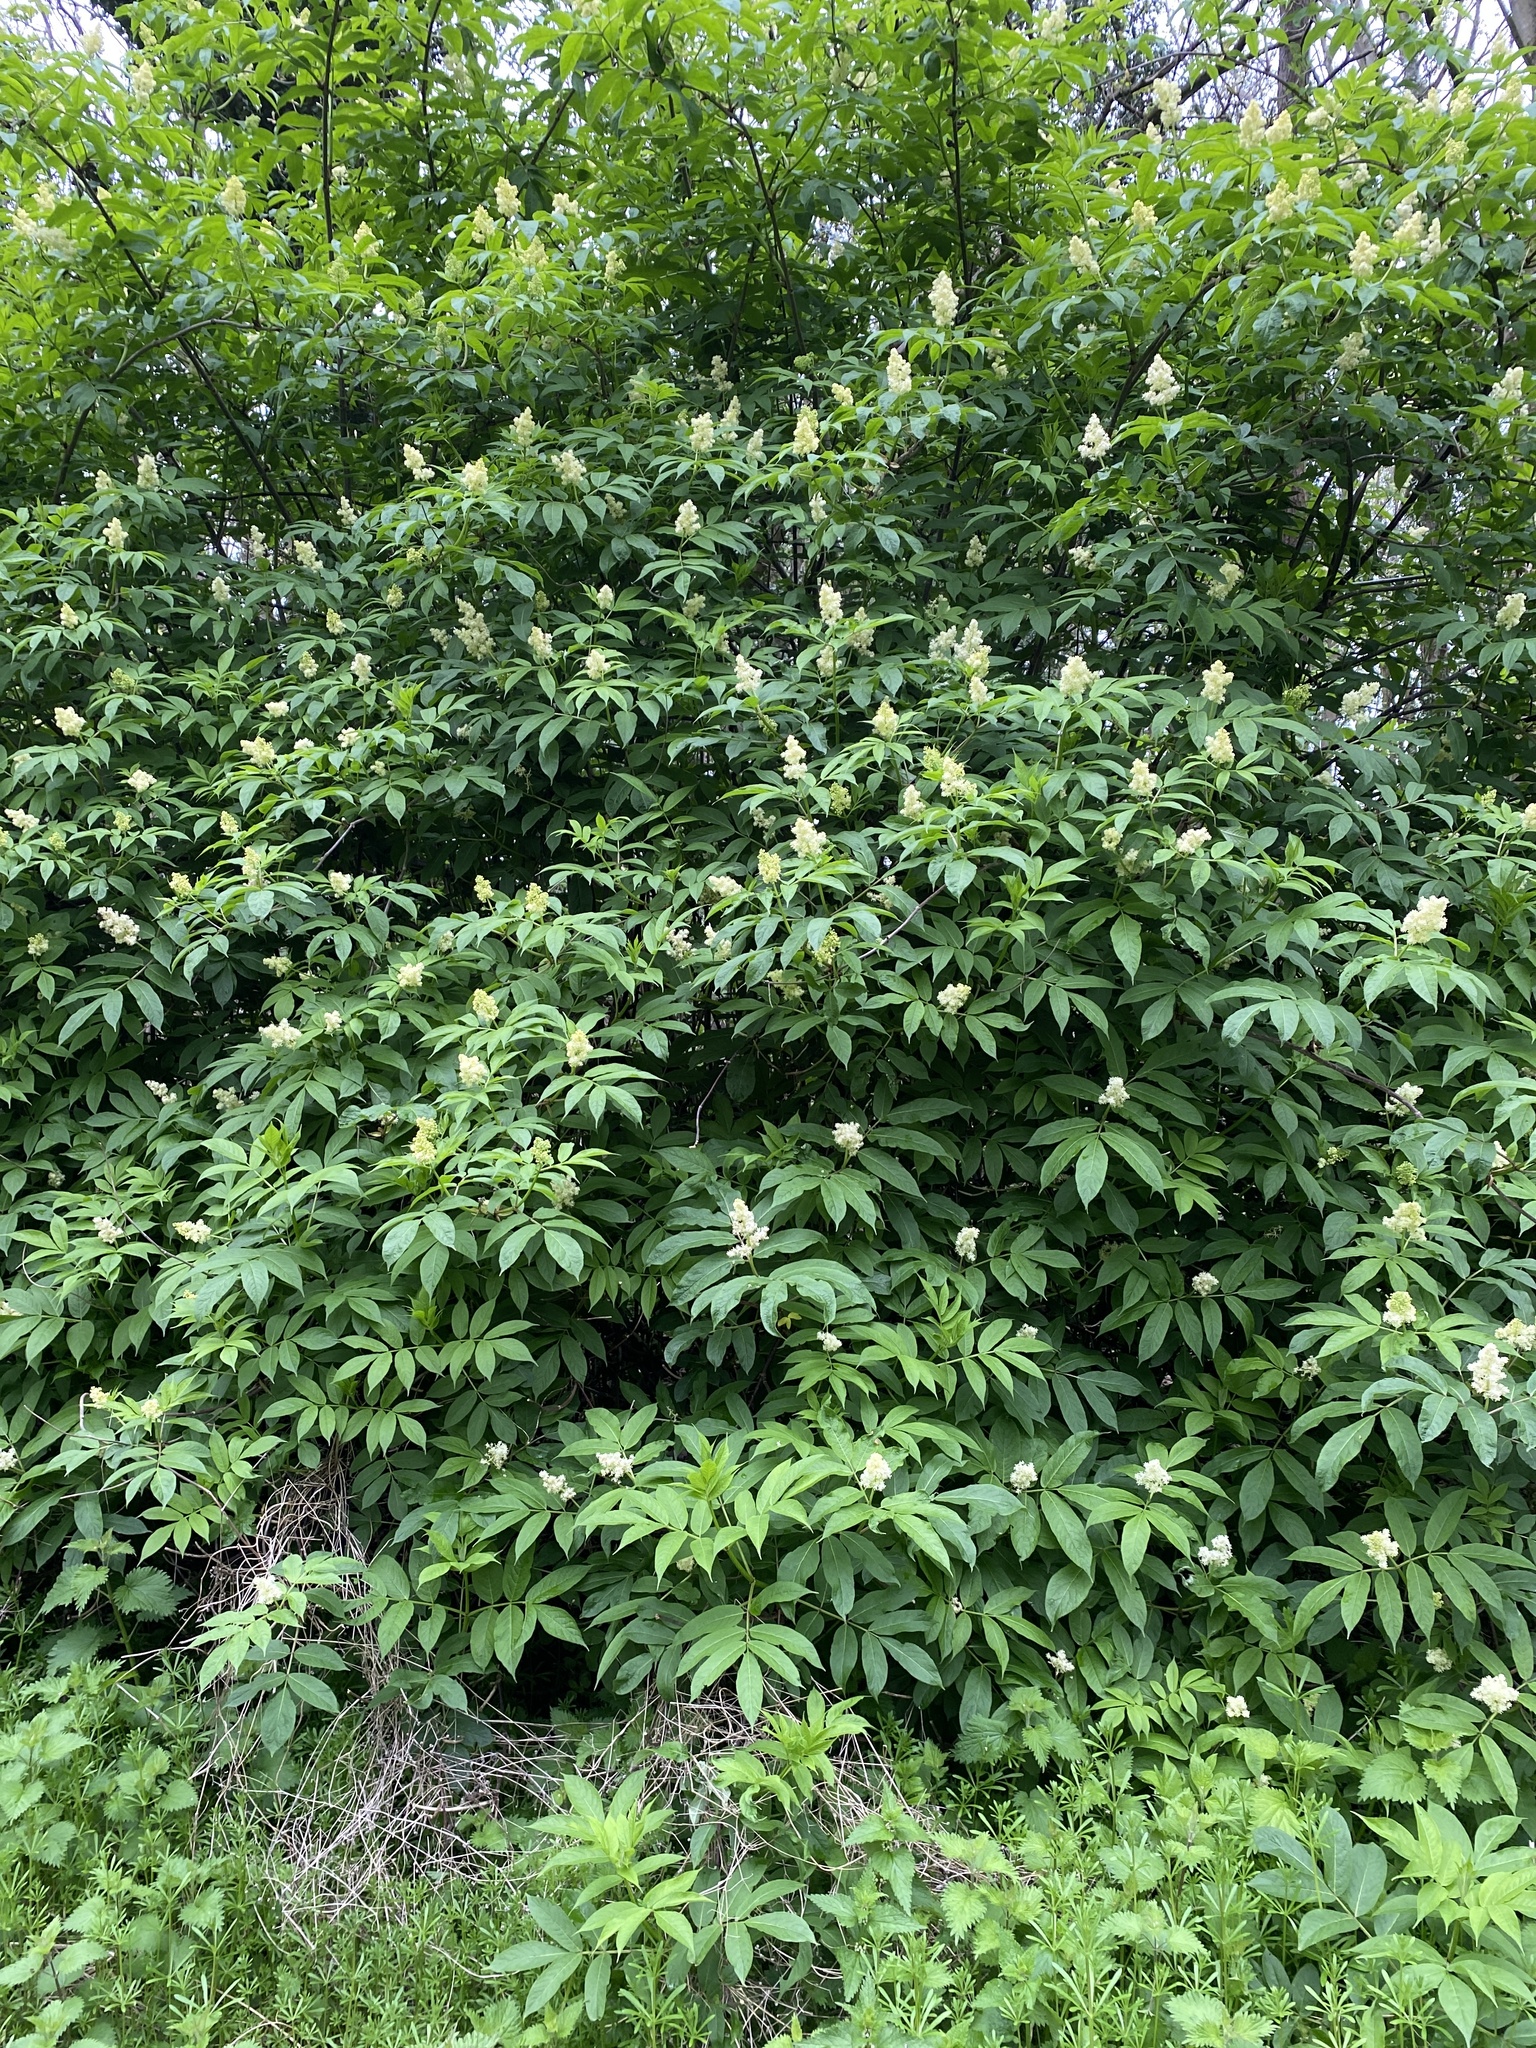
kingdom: Plantae
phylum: Tracheophyta
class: Magnoliopsida
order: Dipsacales
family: Viburnaceae
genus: Sambucus
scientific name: Sambucus racemosa
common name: Red-berried elder
